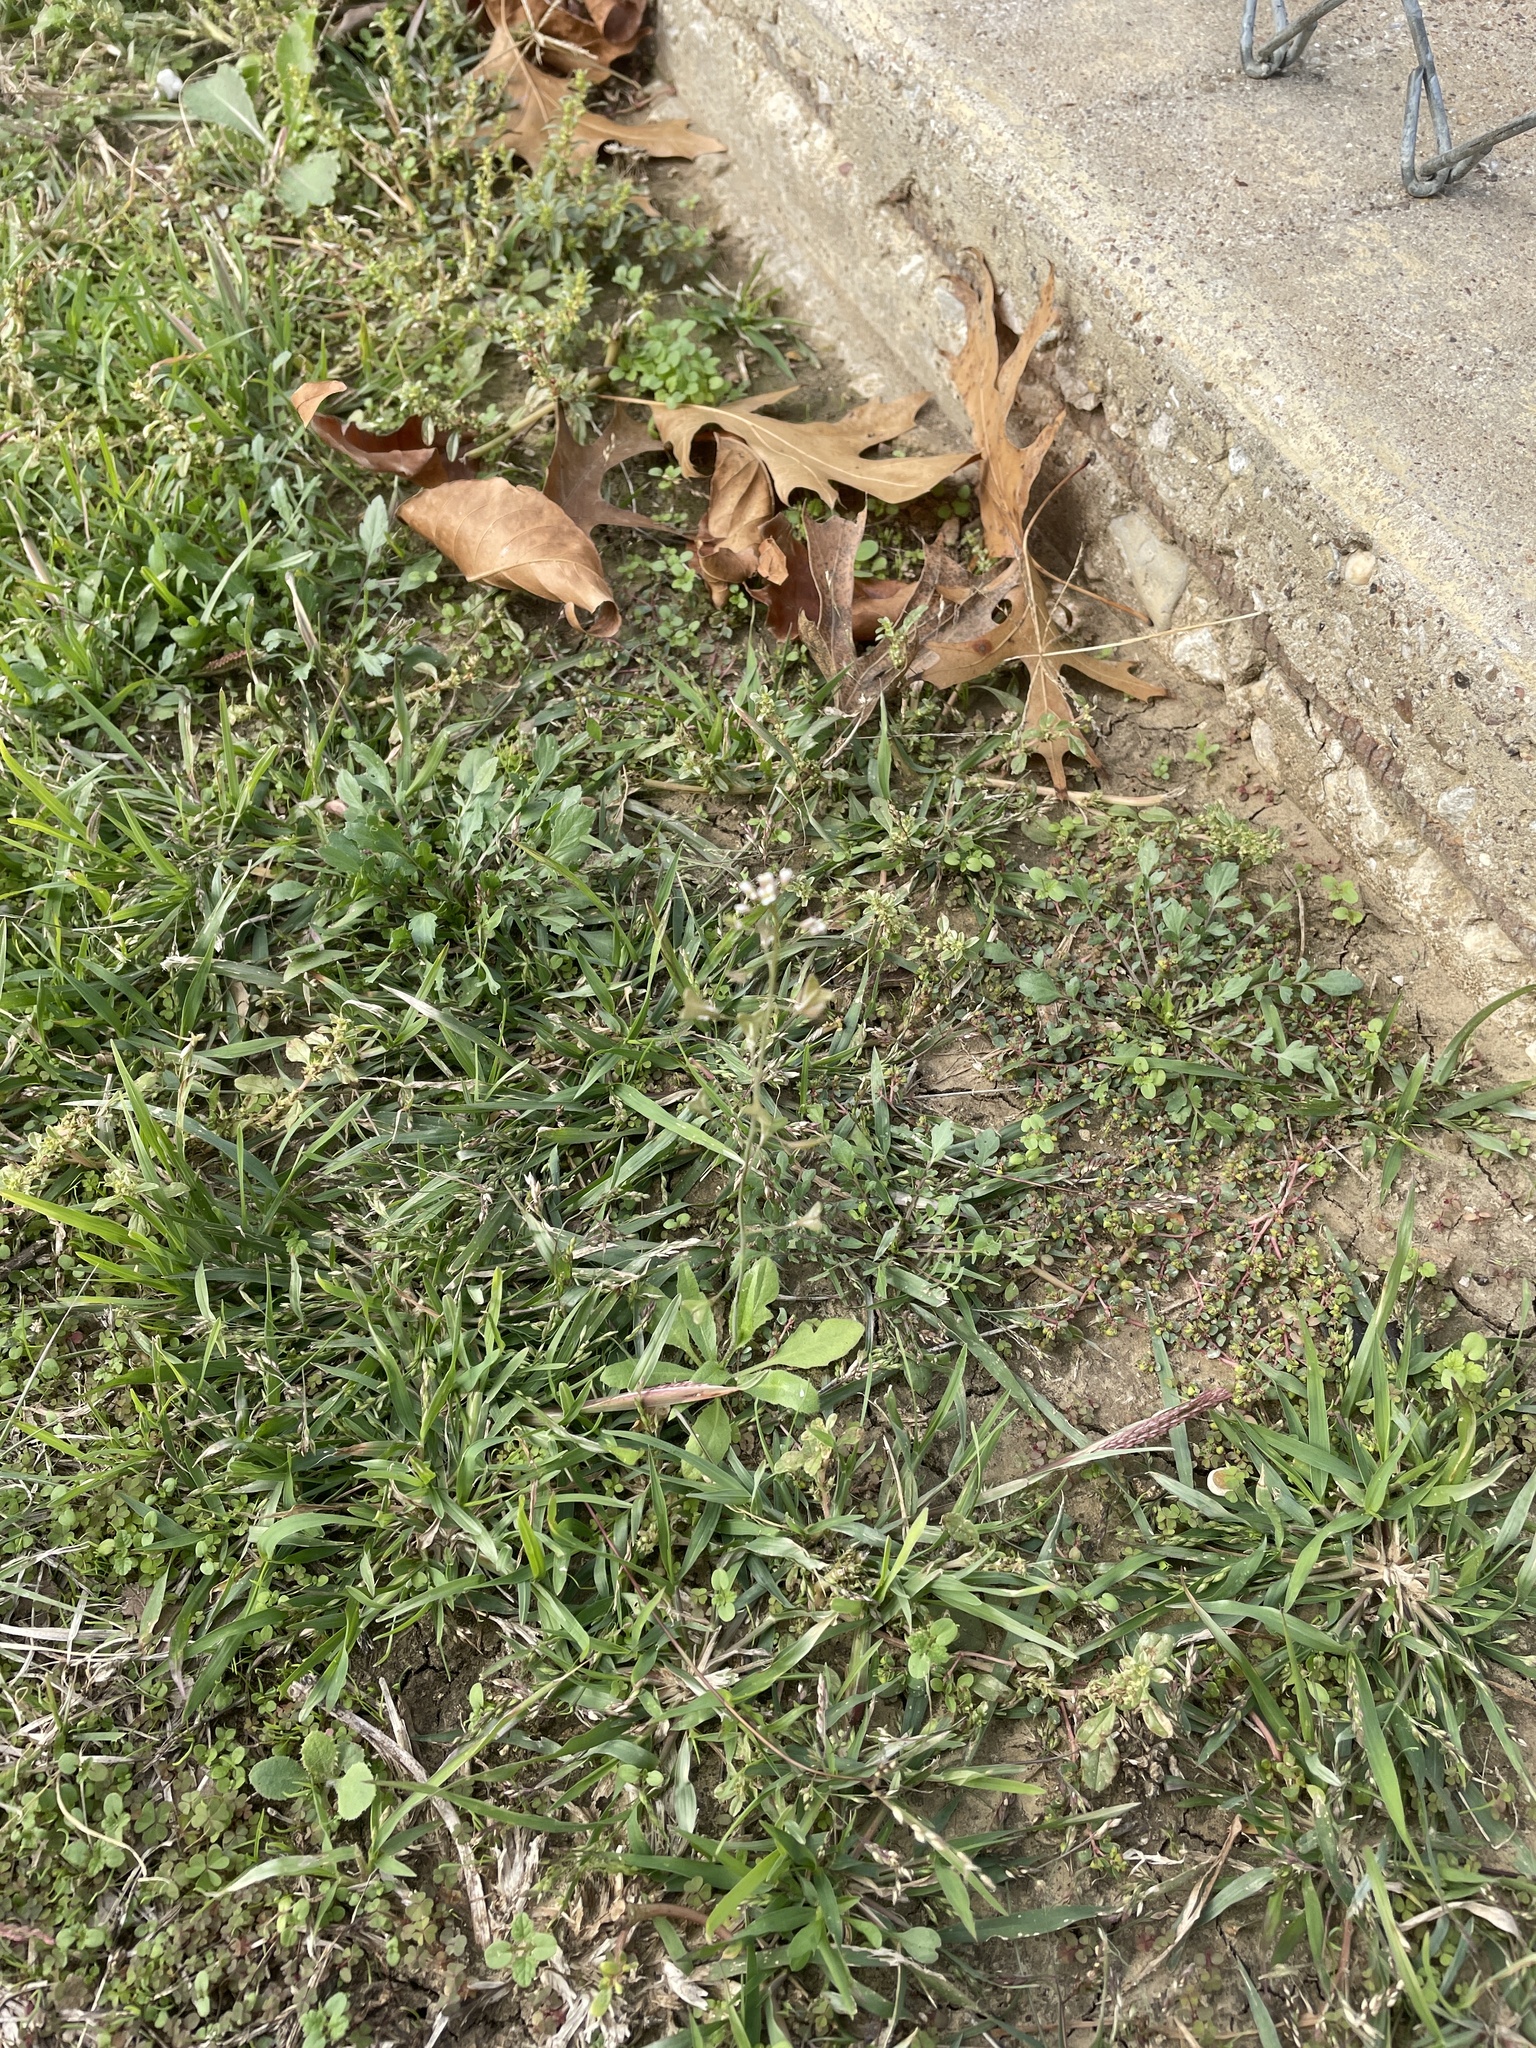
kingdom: Plantae
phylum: Tracheophyta
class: Magnoliopsida
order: Brassicales
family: Brassicaceae
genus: Capsella
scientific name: Capsella bursa-pastoris
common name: Shepherd's purse
